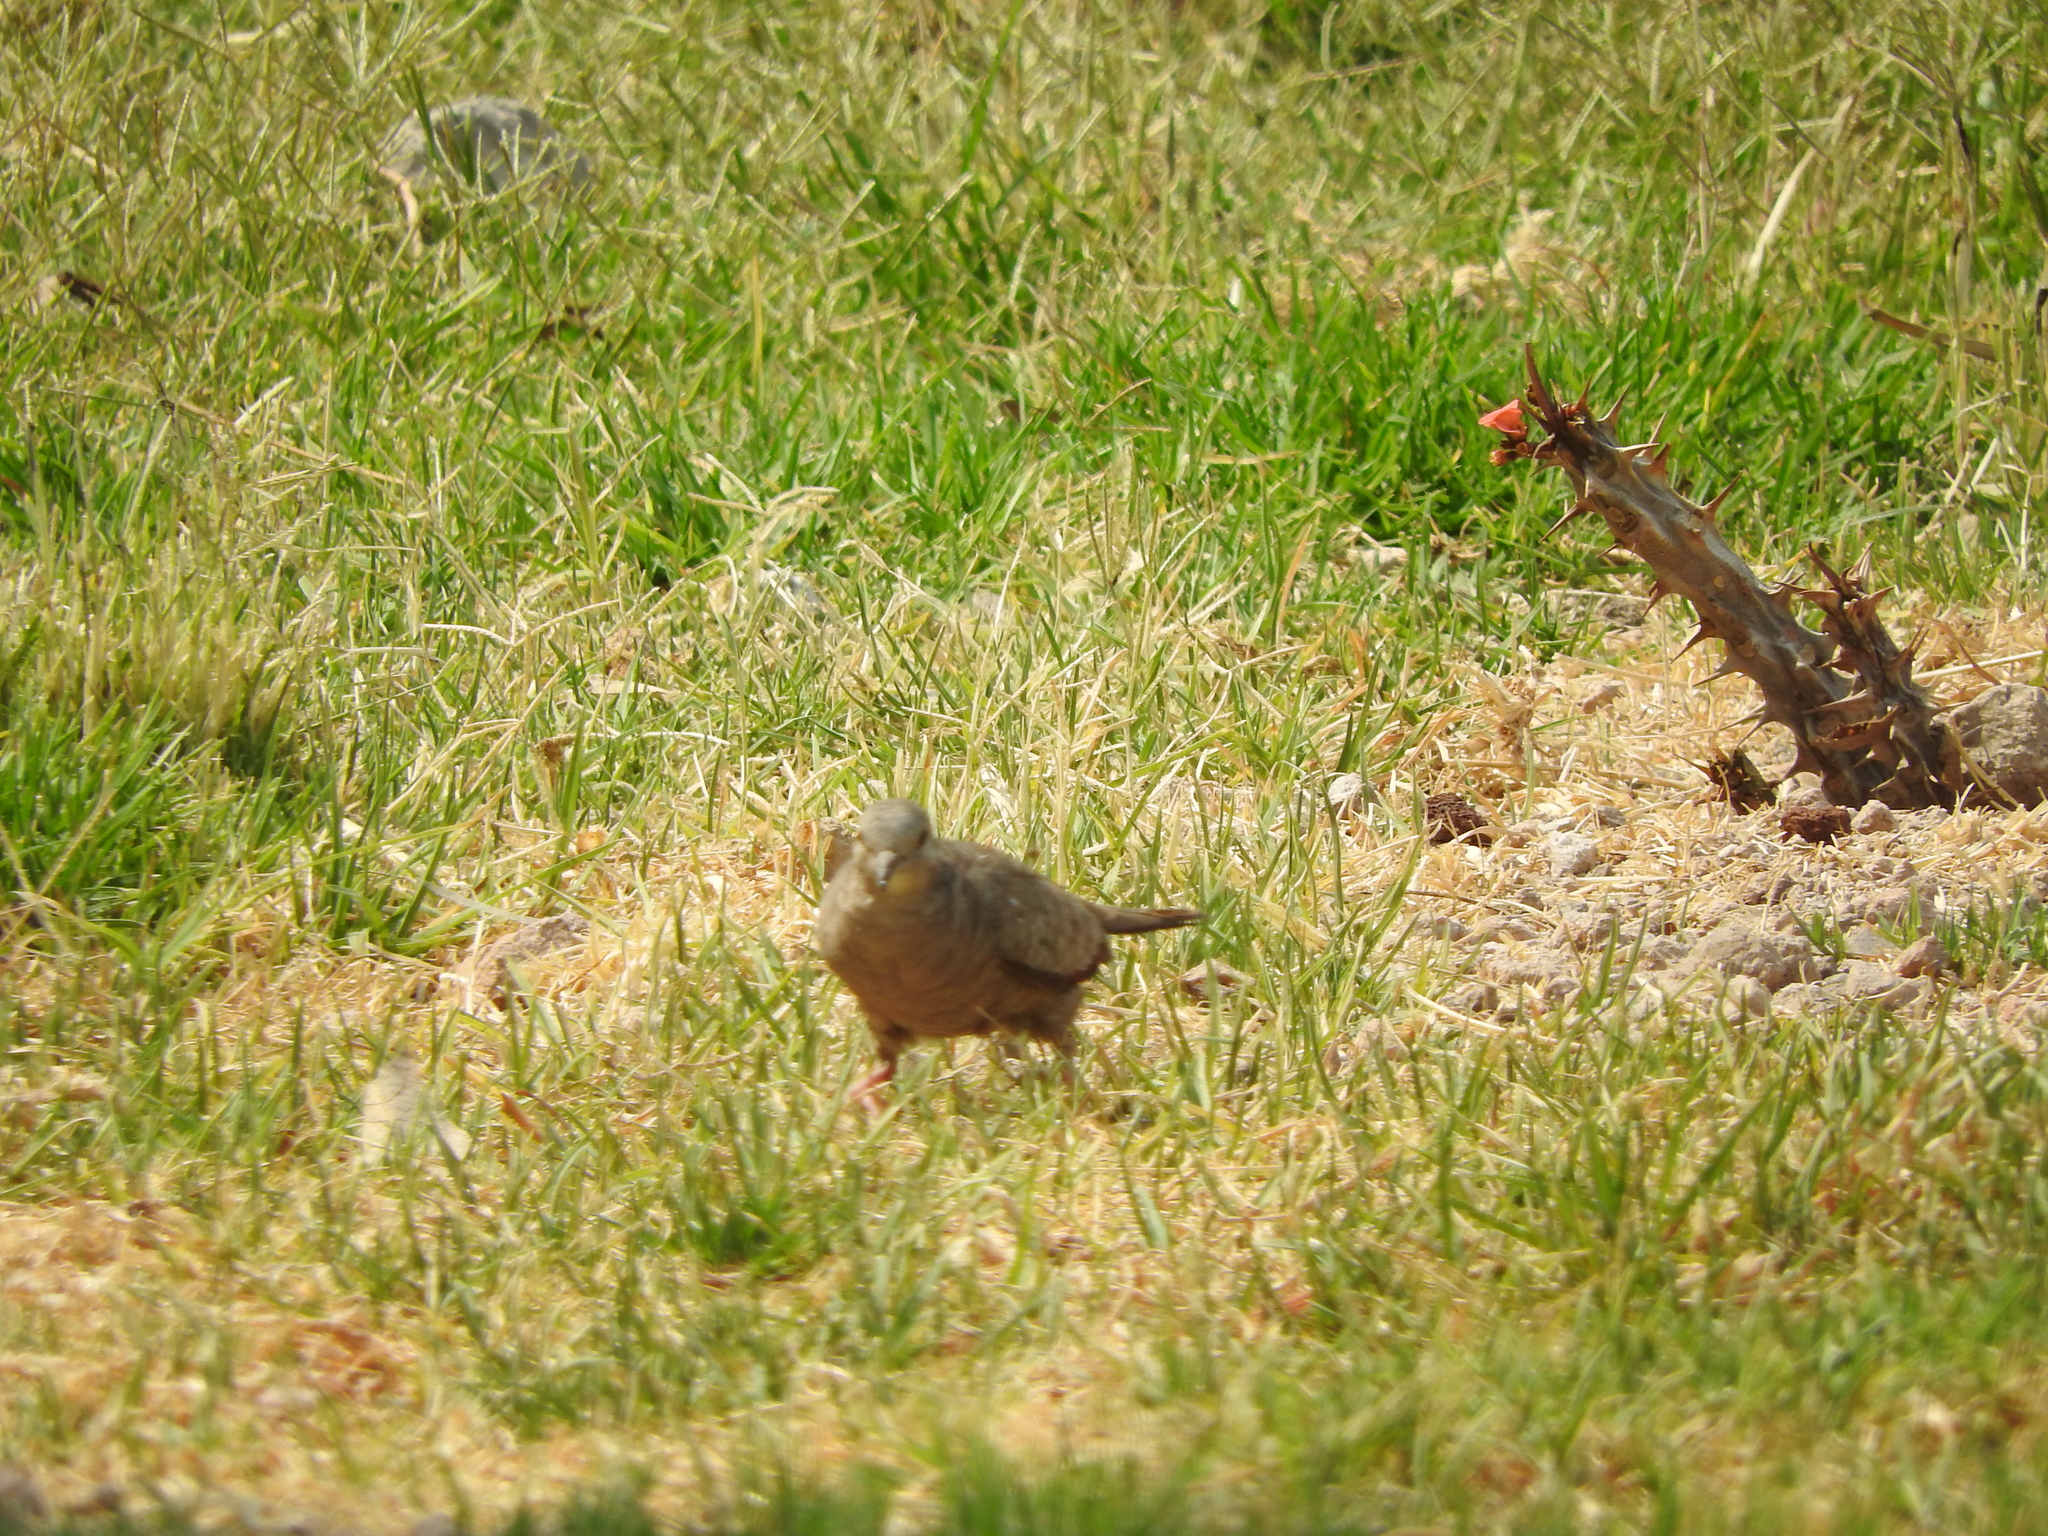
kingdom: Animalia
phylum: Chordata
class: Aves
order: Columbiformes
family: Columbidae
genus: Columbina
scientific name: Columbina inca
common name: Inca dove
